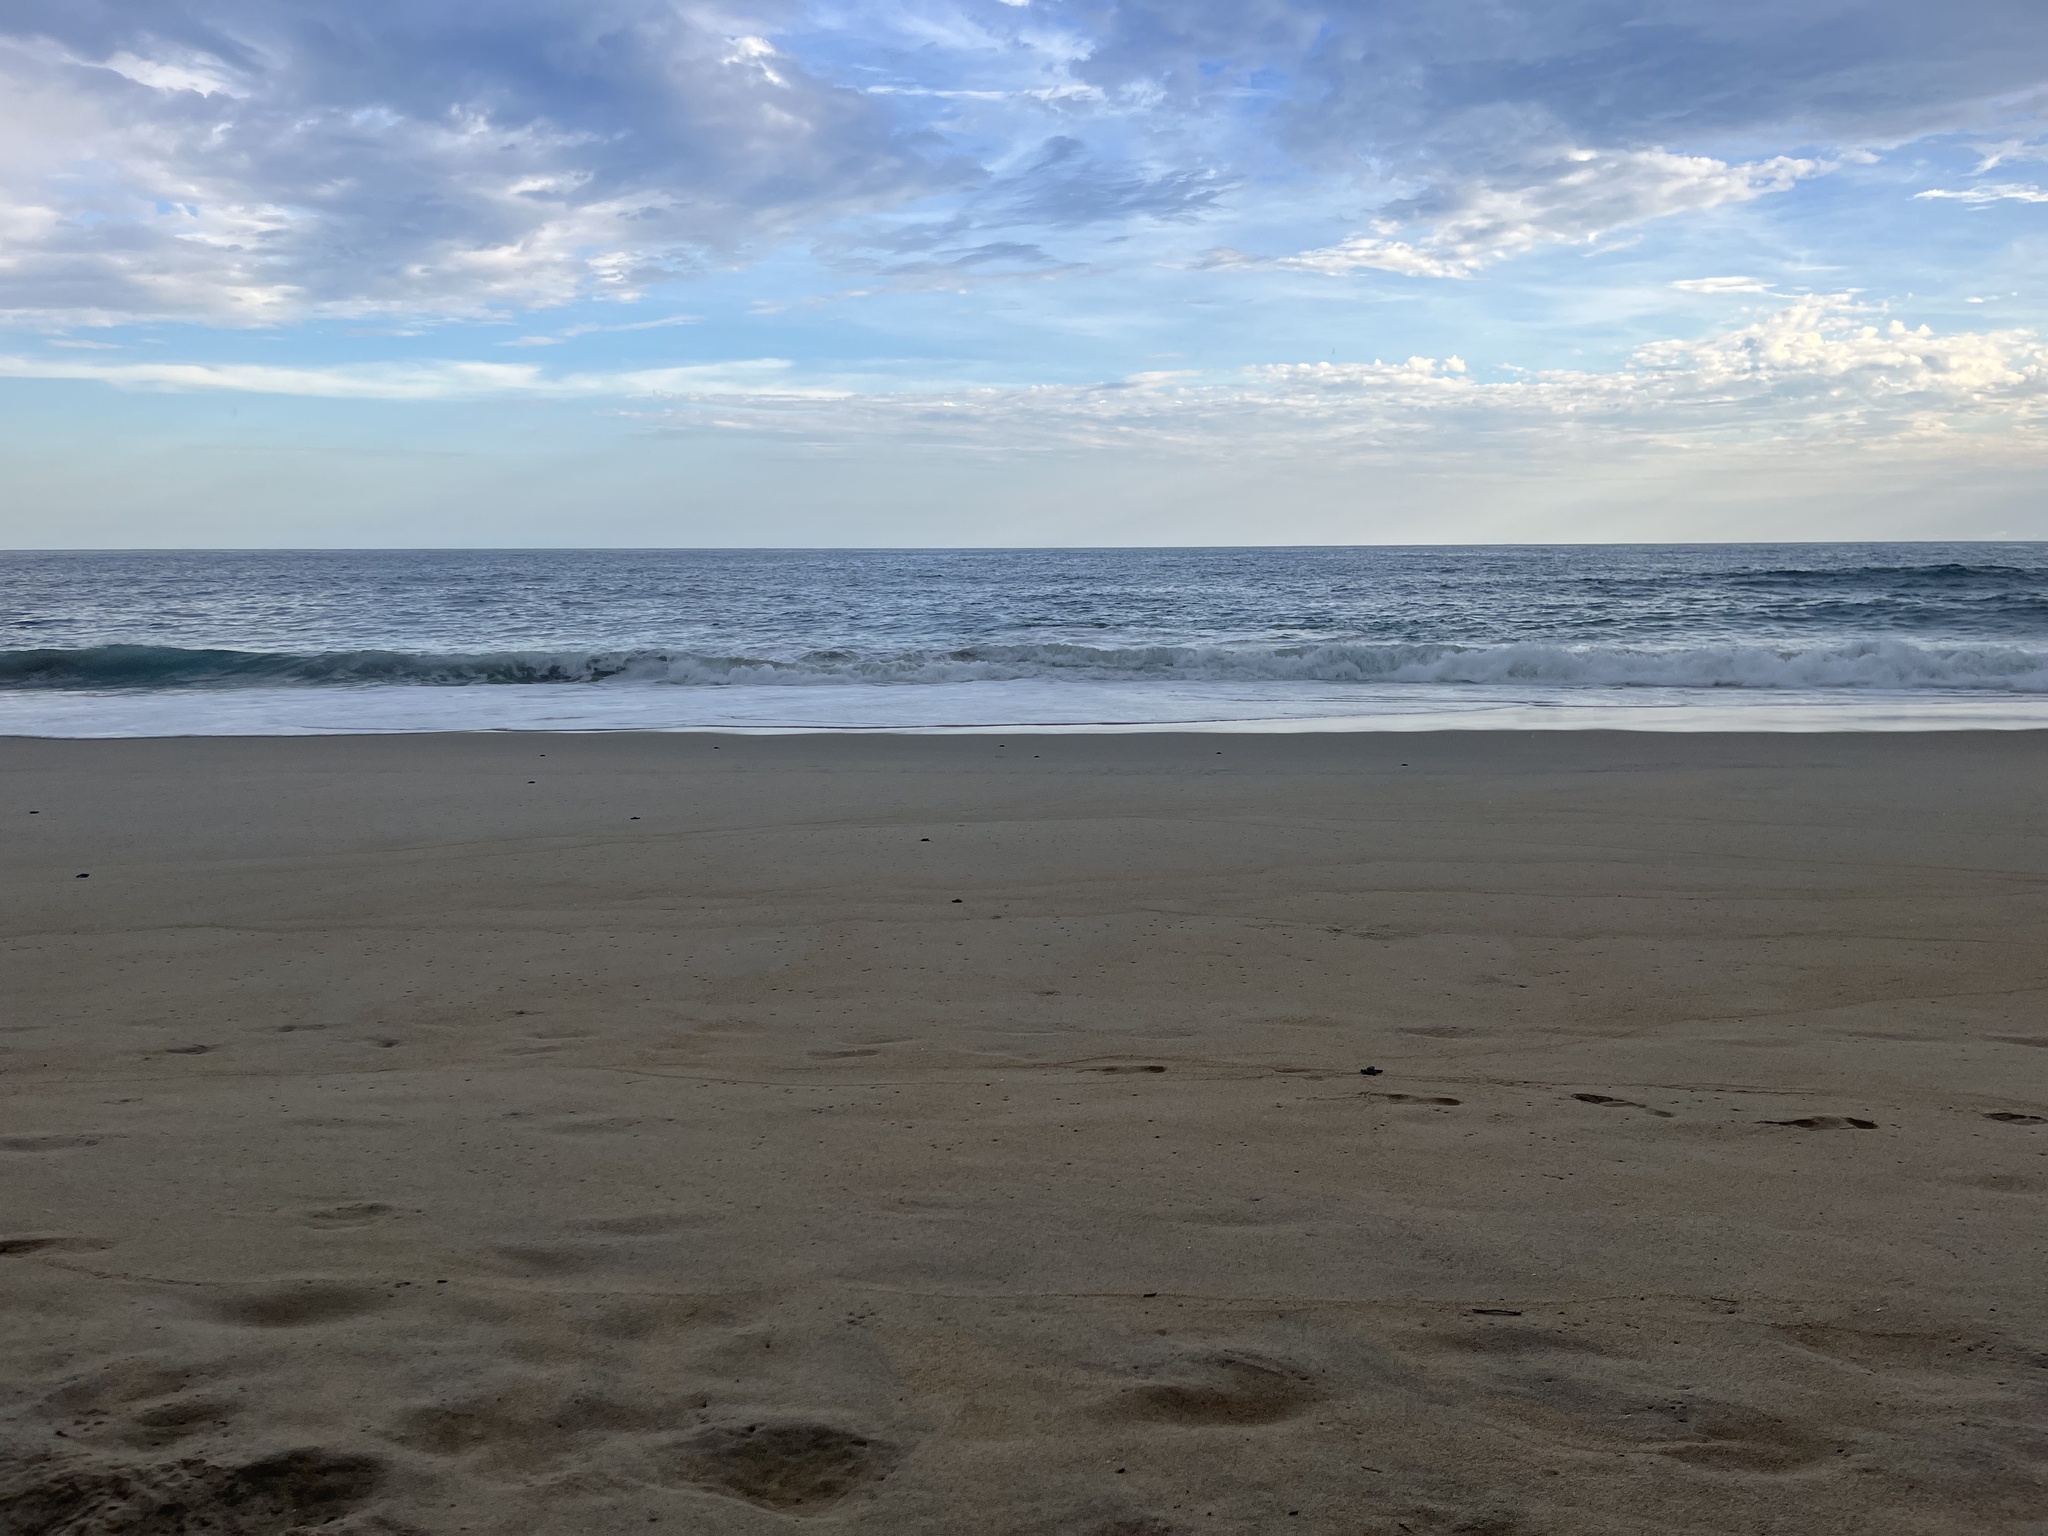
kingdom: Animalia
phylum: Chordata
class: Testudines
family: Cheloniidae
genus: Lepidochelys
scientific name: Lepidochelys olivacea
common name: Olive ridley
